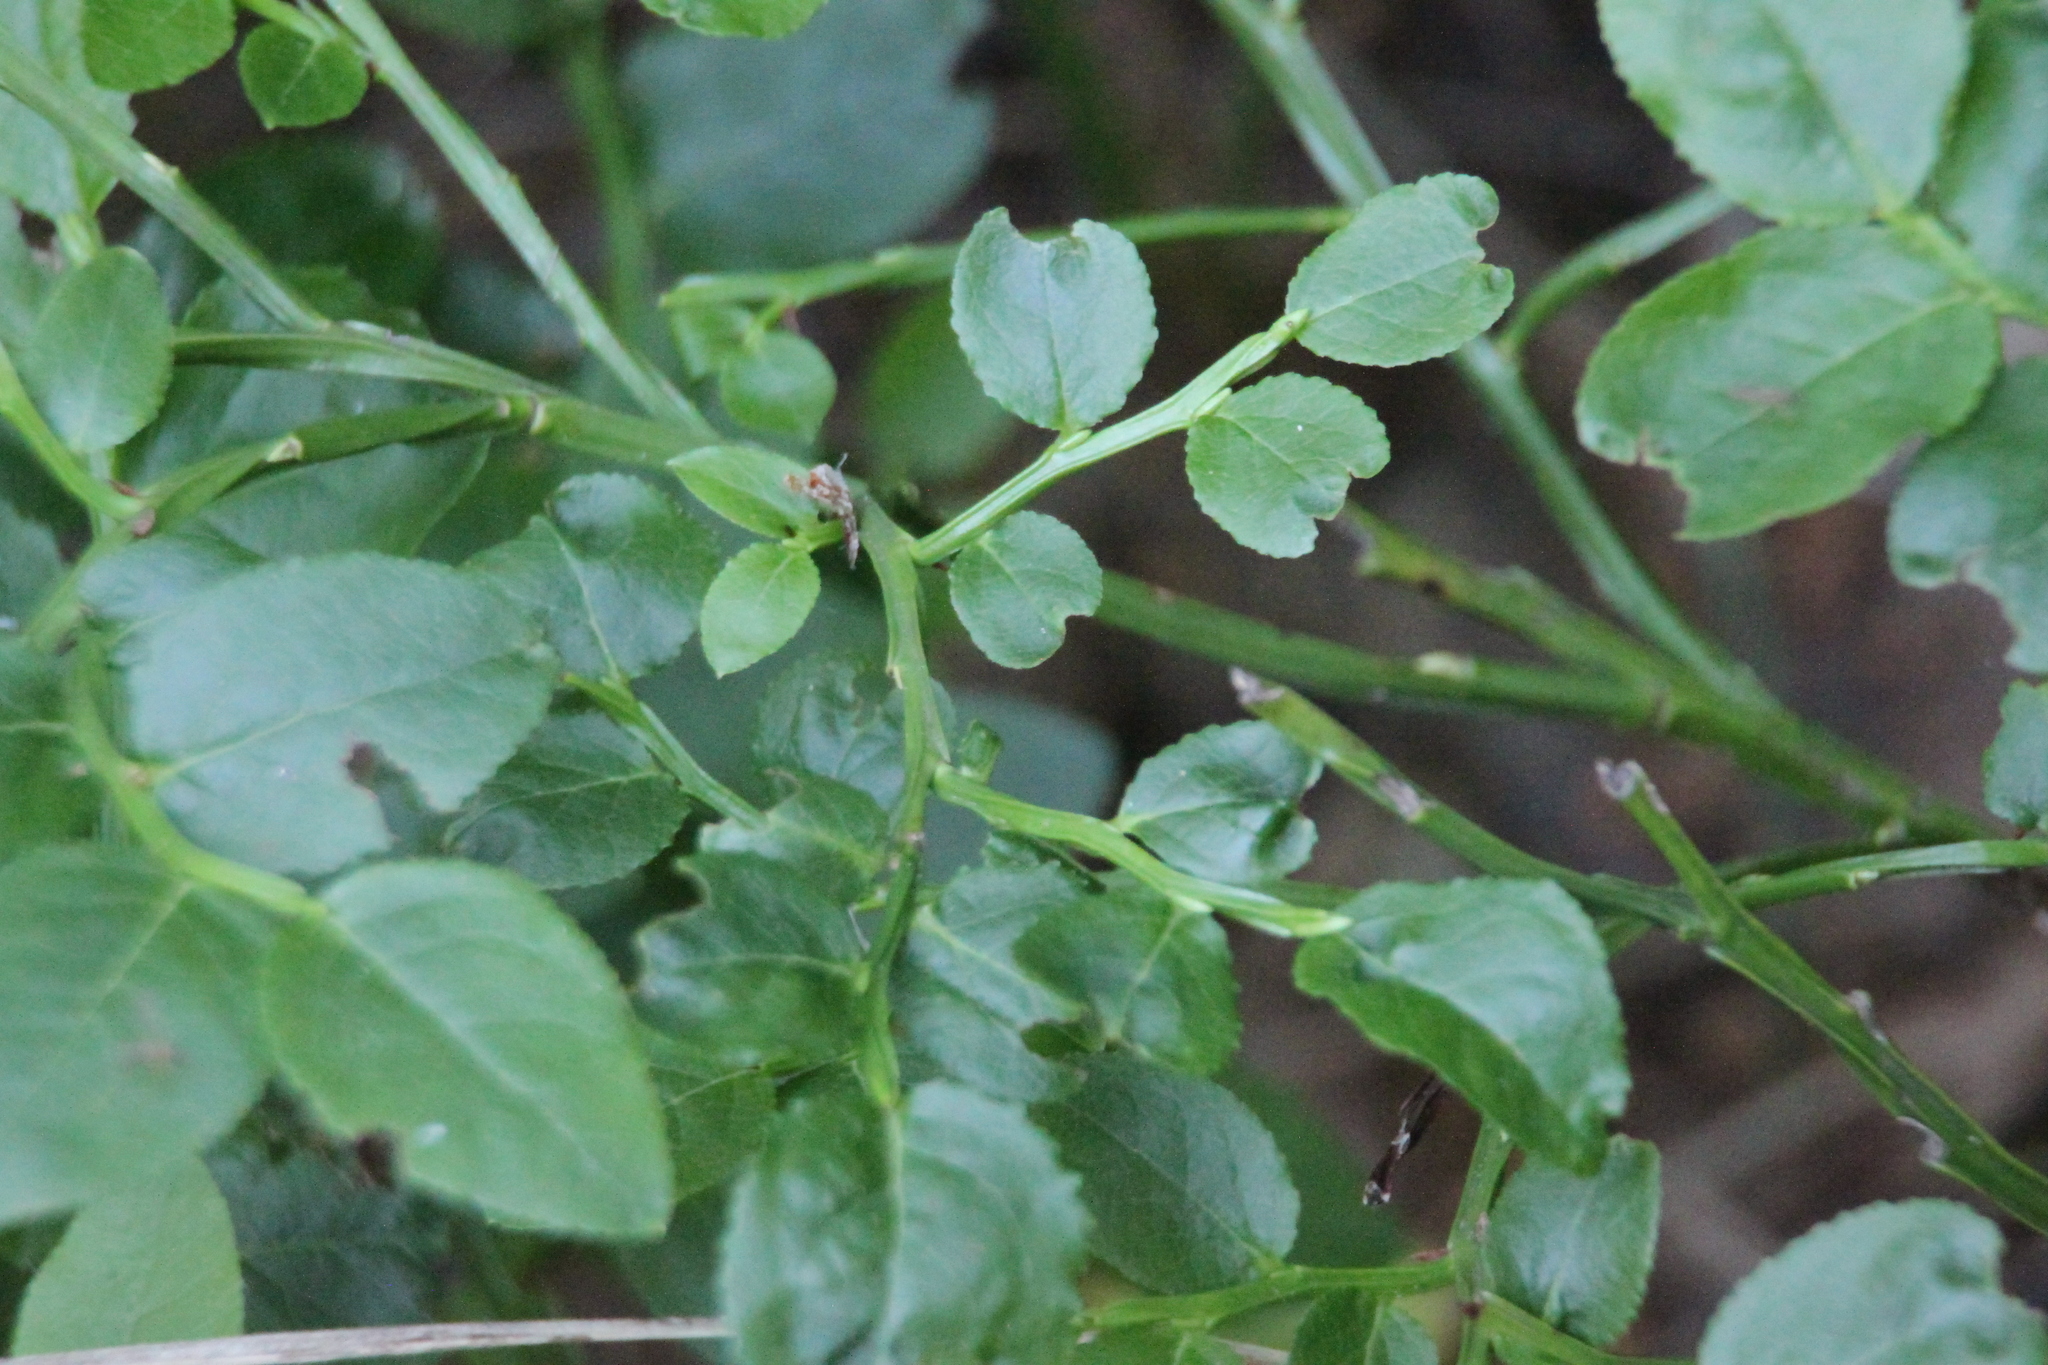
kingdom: Plantae
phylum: Tracheophyta
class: Magnoliopsida
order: Ericales
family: Ericaceae
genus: Vaccinium
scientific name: Vaccinium myrtillus
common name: Bilberry
